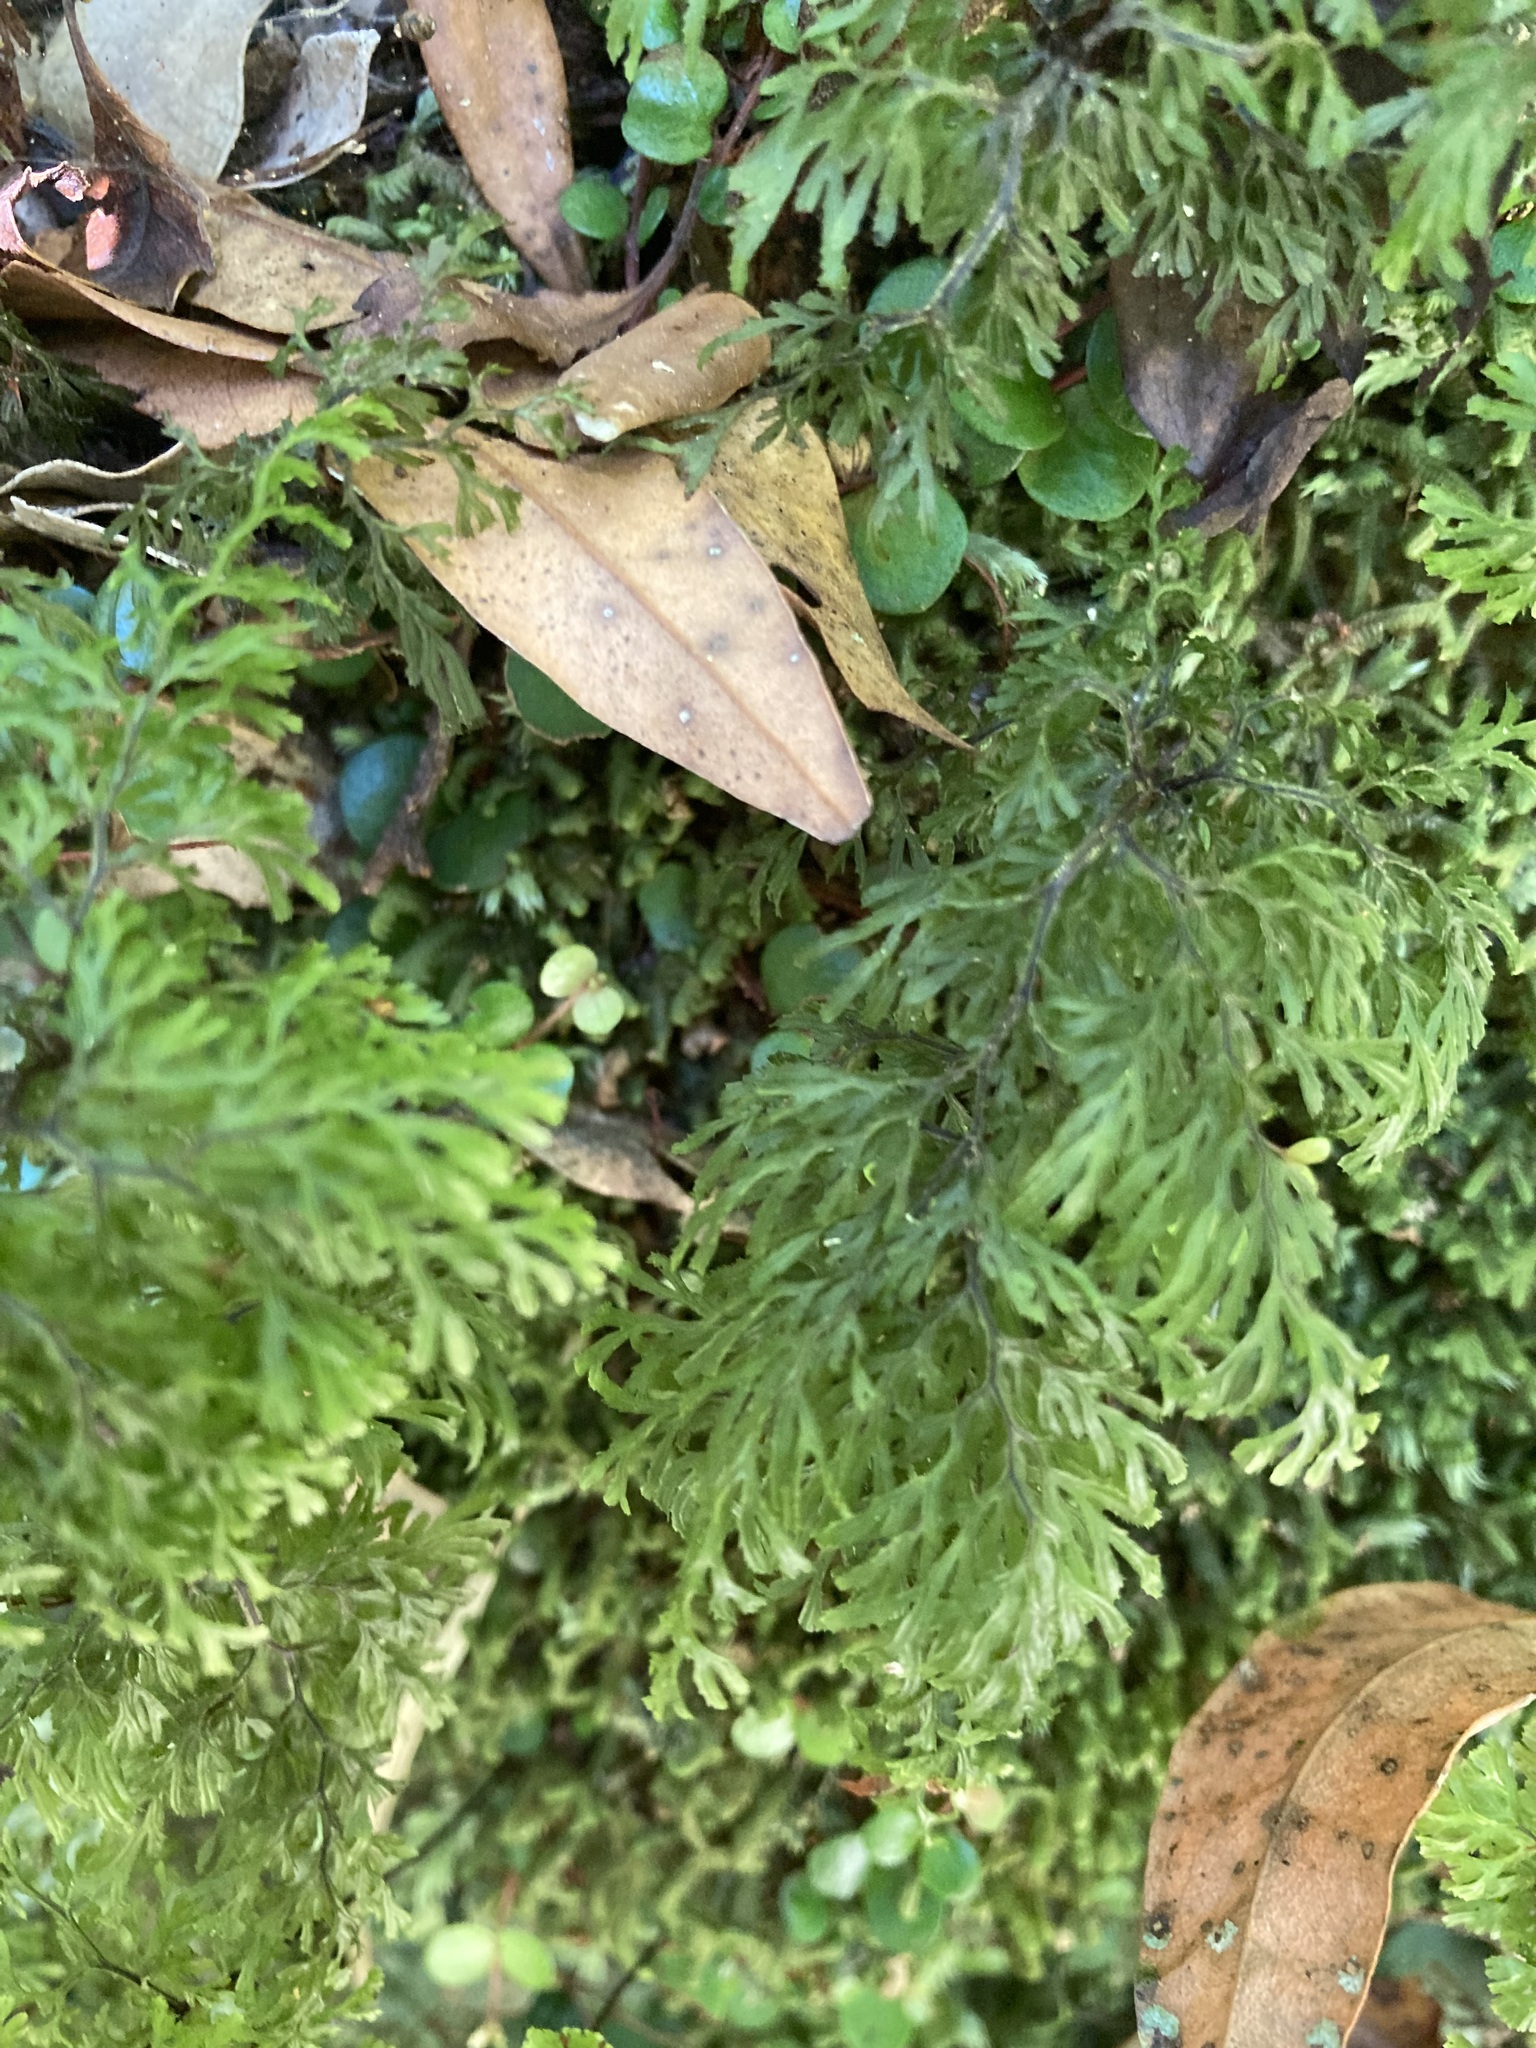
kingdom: Plantae
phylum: Tracheophyta
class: Polypodiopsida
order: Hymenophyllales
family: Hymenophyllaceae
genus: Hymenophyllum
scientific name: Hymenophyllum multifidum
